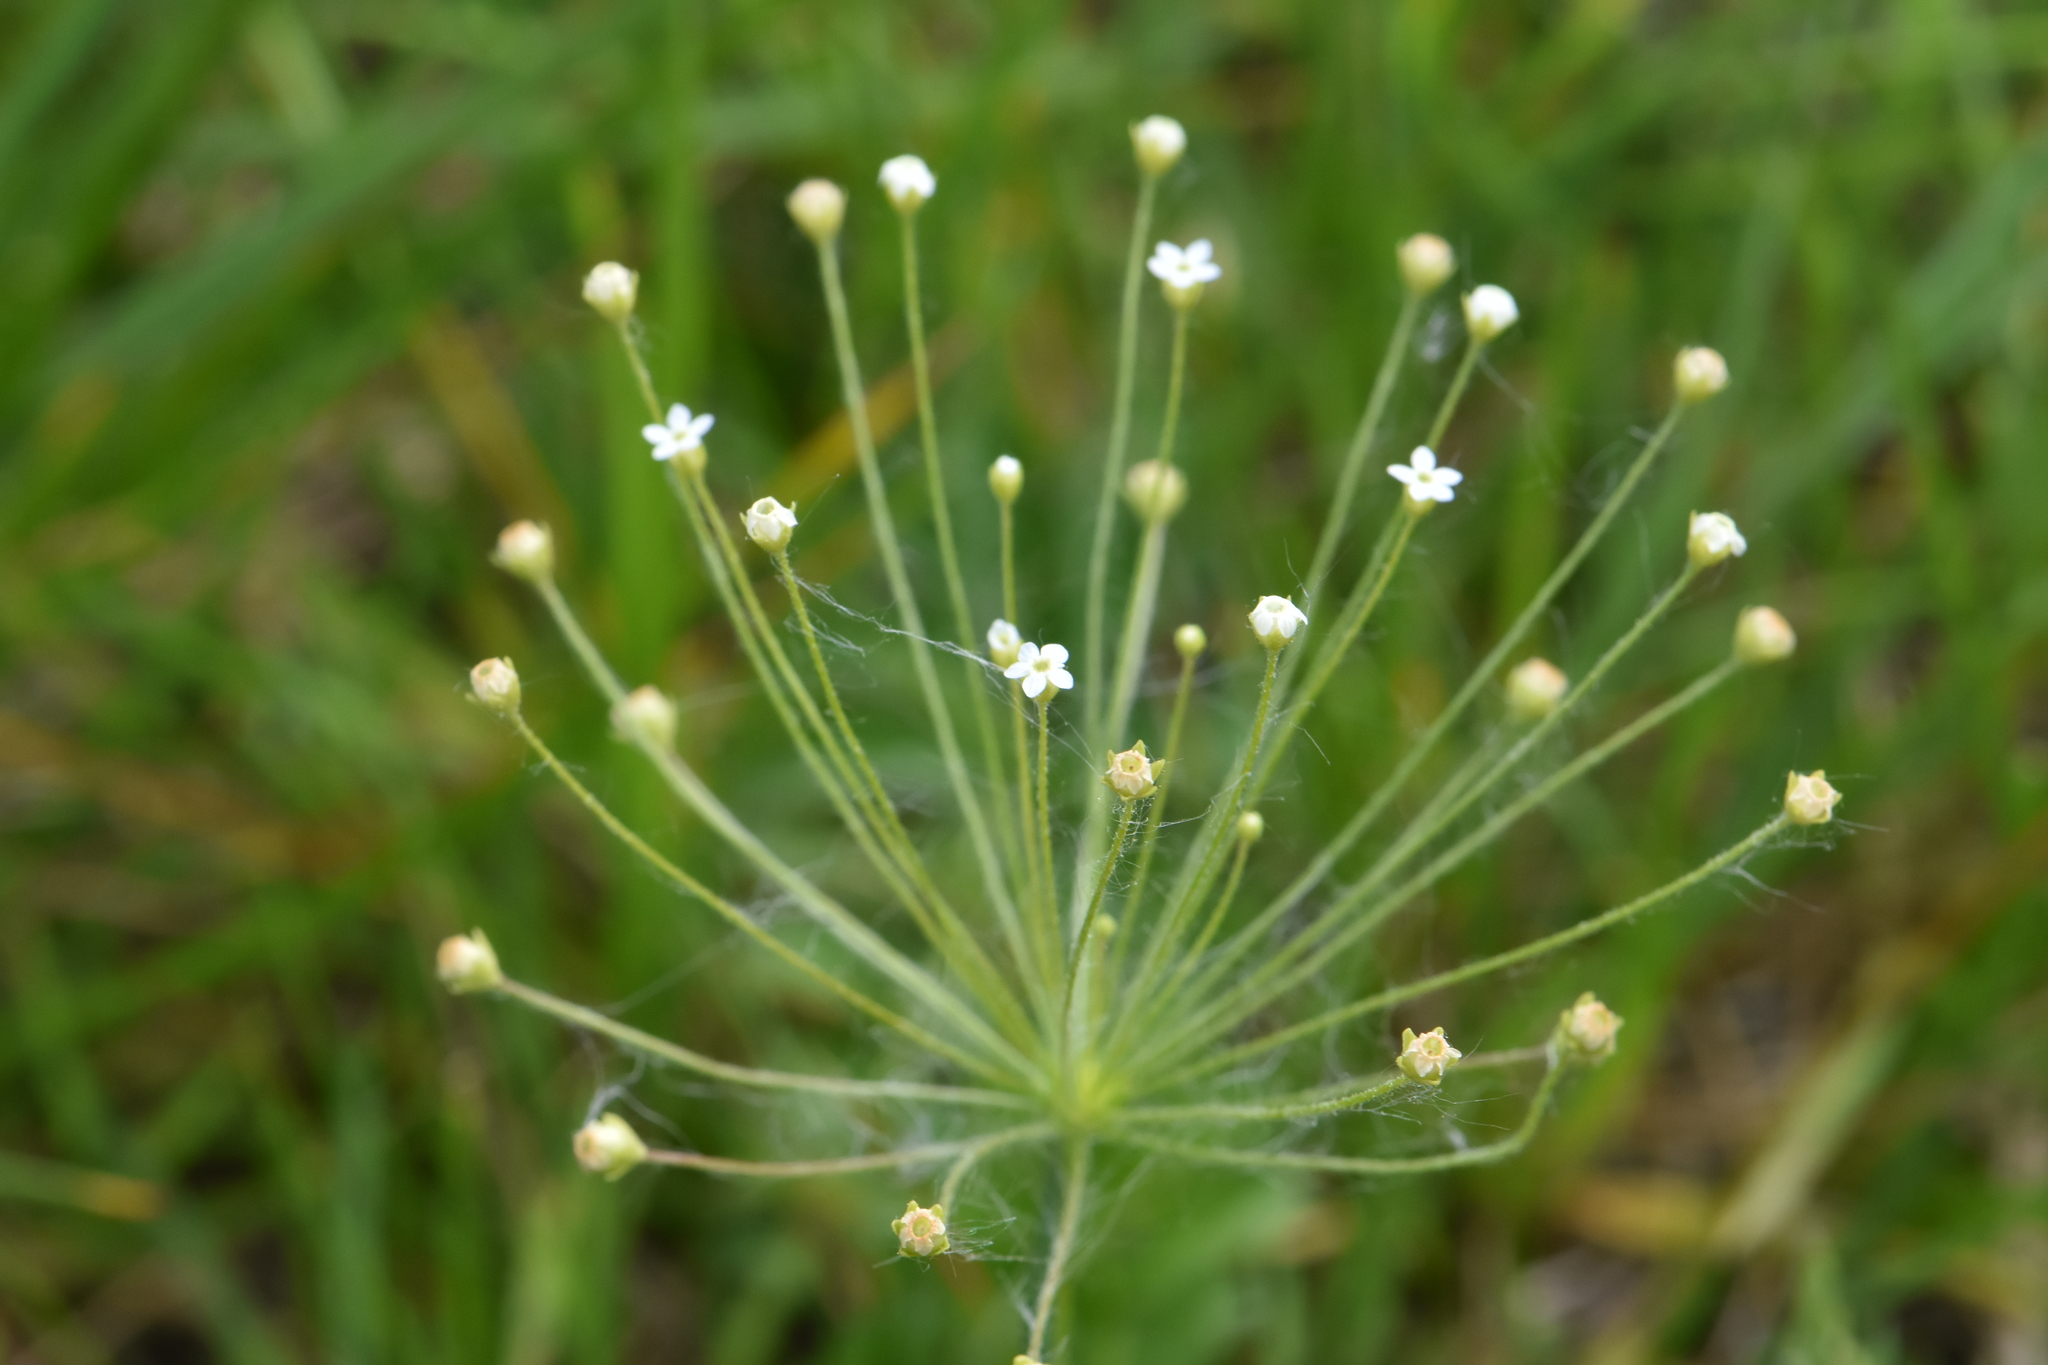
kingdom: Plantae
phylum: Tracheophyta
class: Magnoliopsida
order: Ericales
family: Primulaceae
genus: Androsace
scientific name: Androsace filiformis
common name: Filiform rock jasmine
